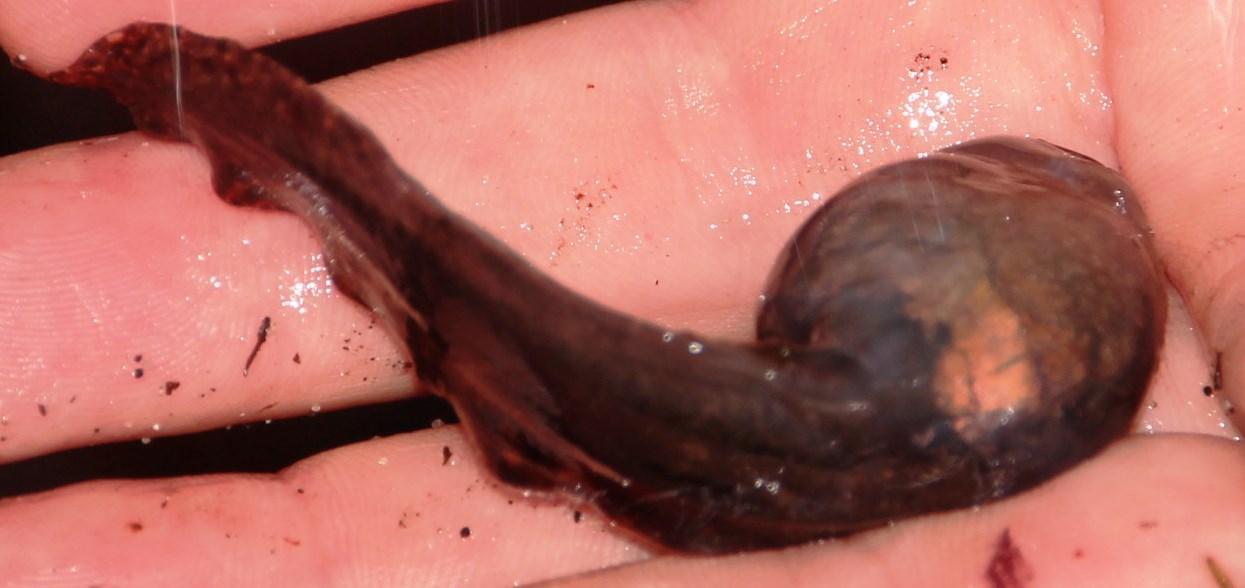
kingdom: Animalia
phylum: Chordata
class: Amphibia
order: Anura
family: Pyxicephalidae
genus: Amietia
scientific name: Amietia fuscigula
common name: Cape rana
